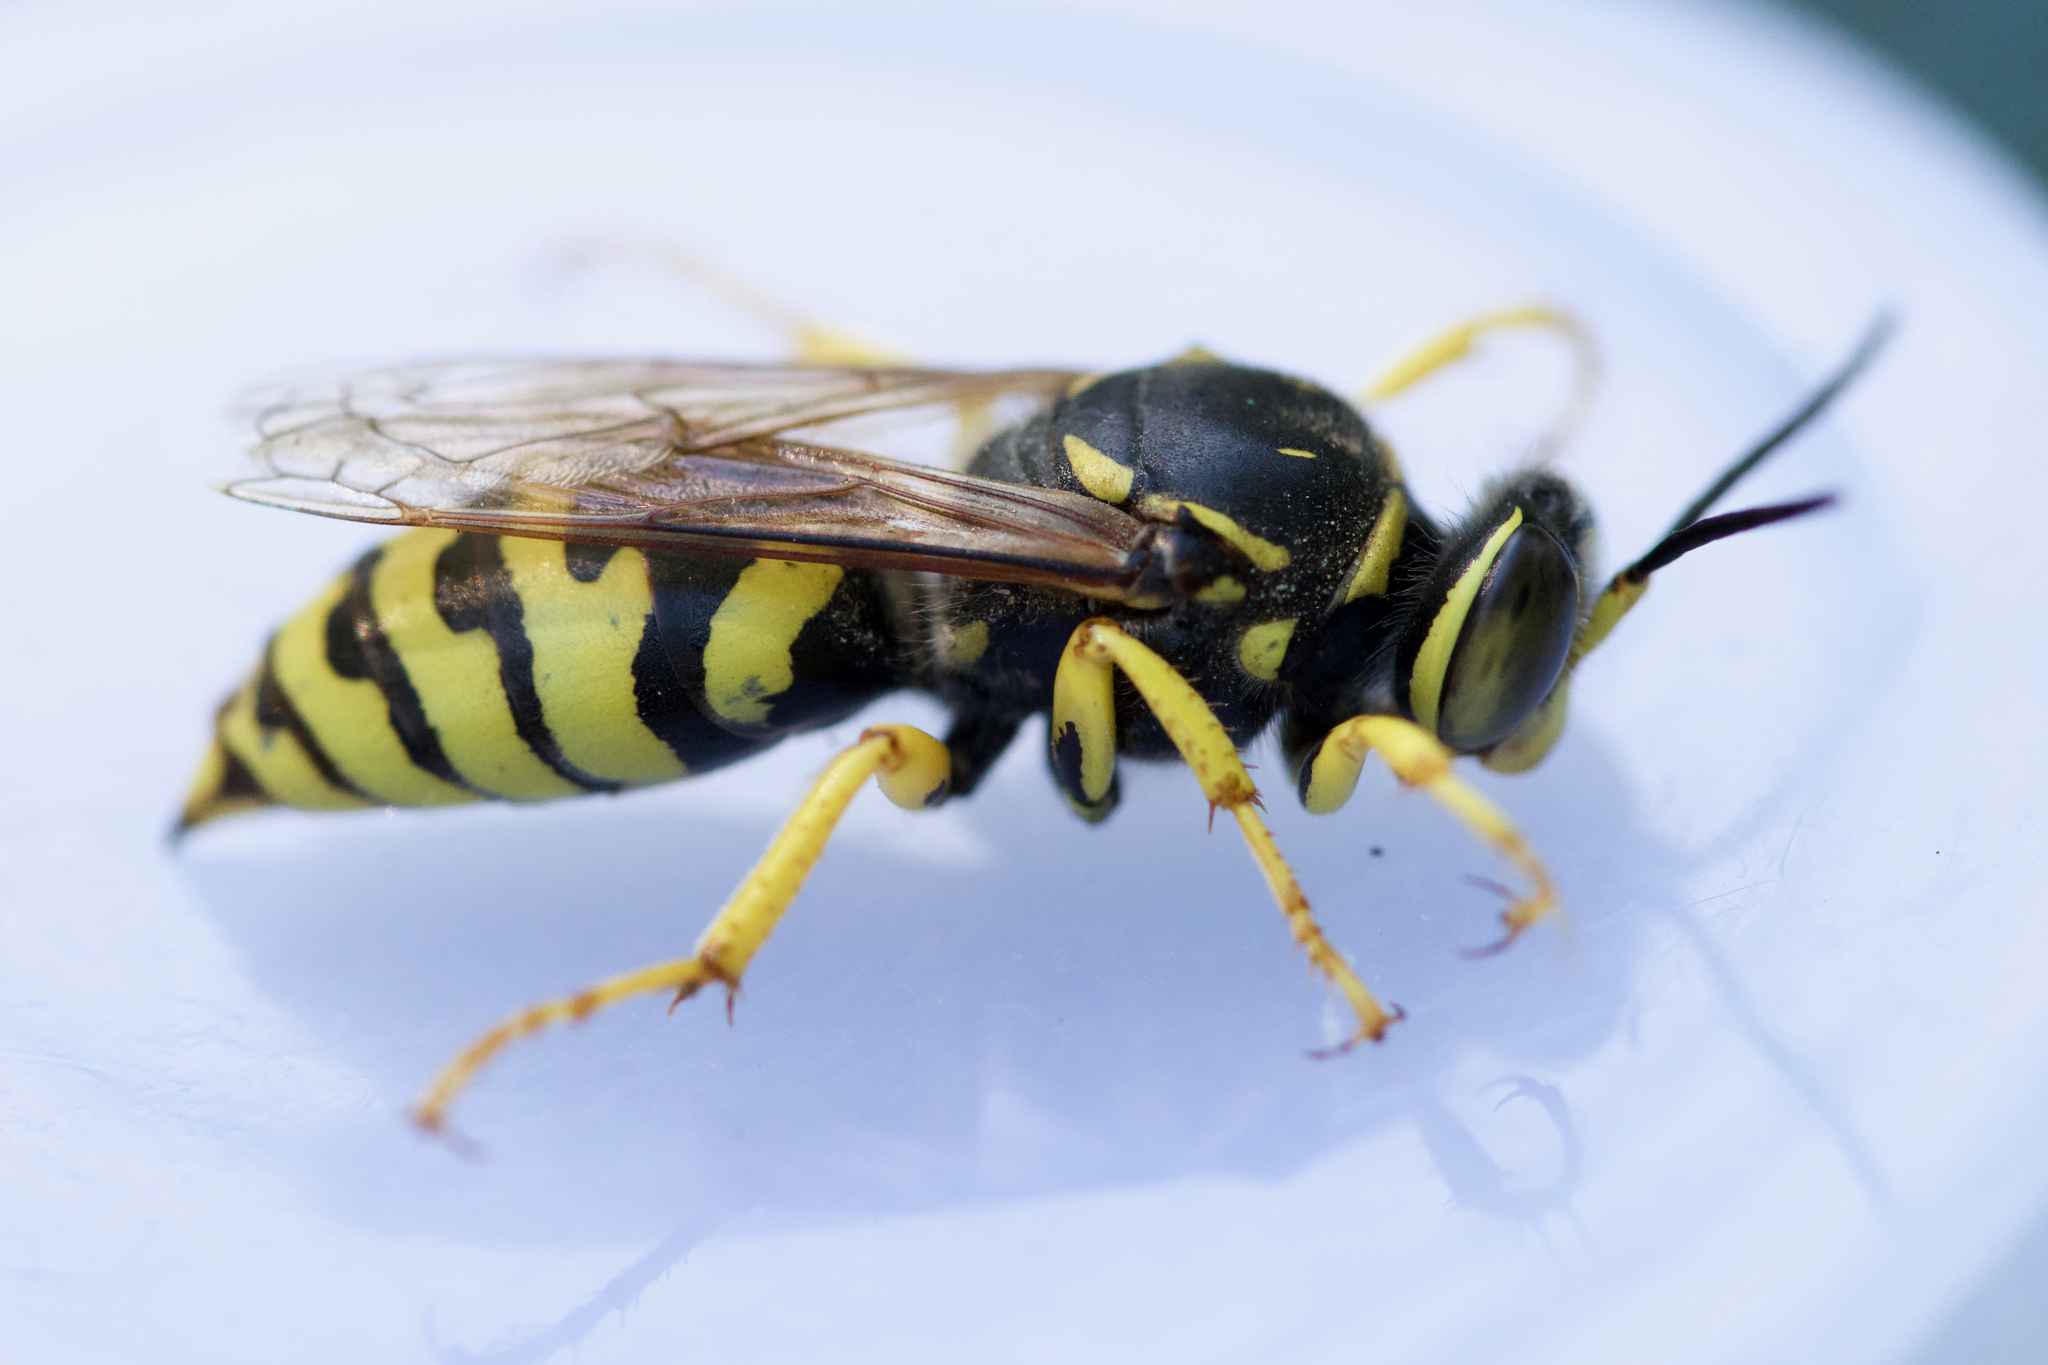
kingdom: Animalia
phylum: Arthropoda
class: Insecta
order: Hymenoptera
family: Crabronidae
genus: Stictiella
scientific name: Stictiella emarginata
